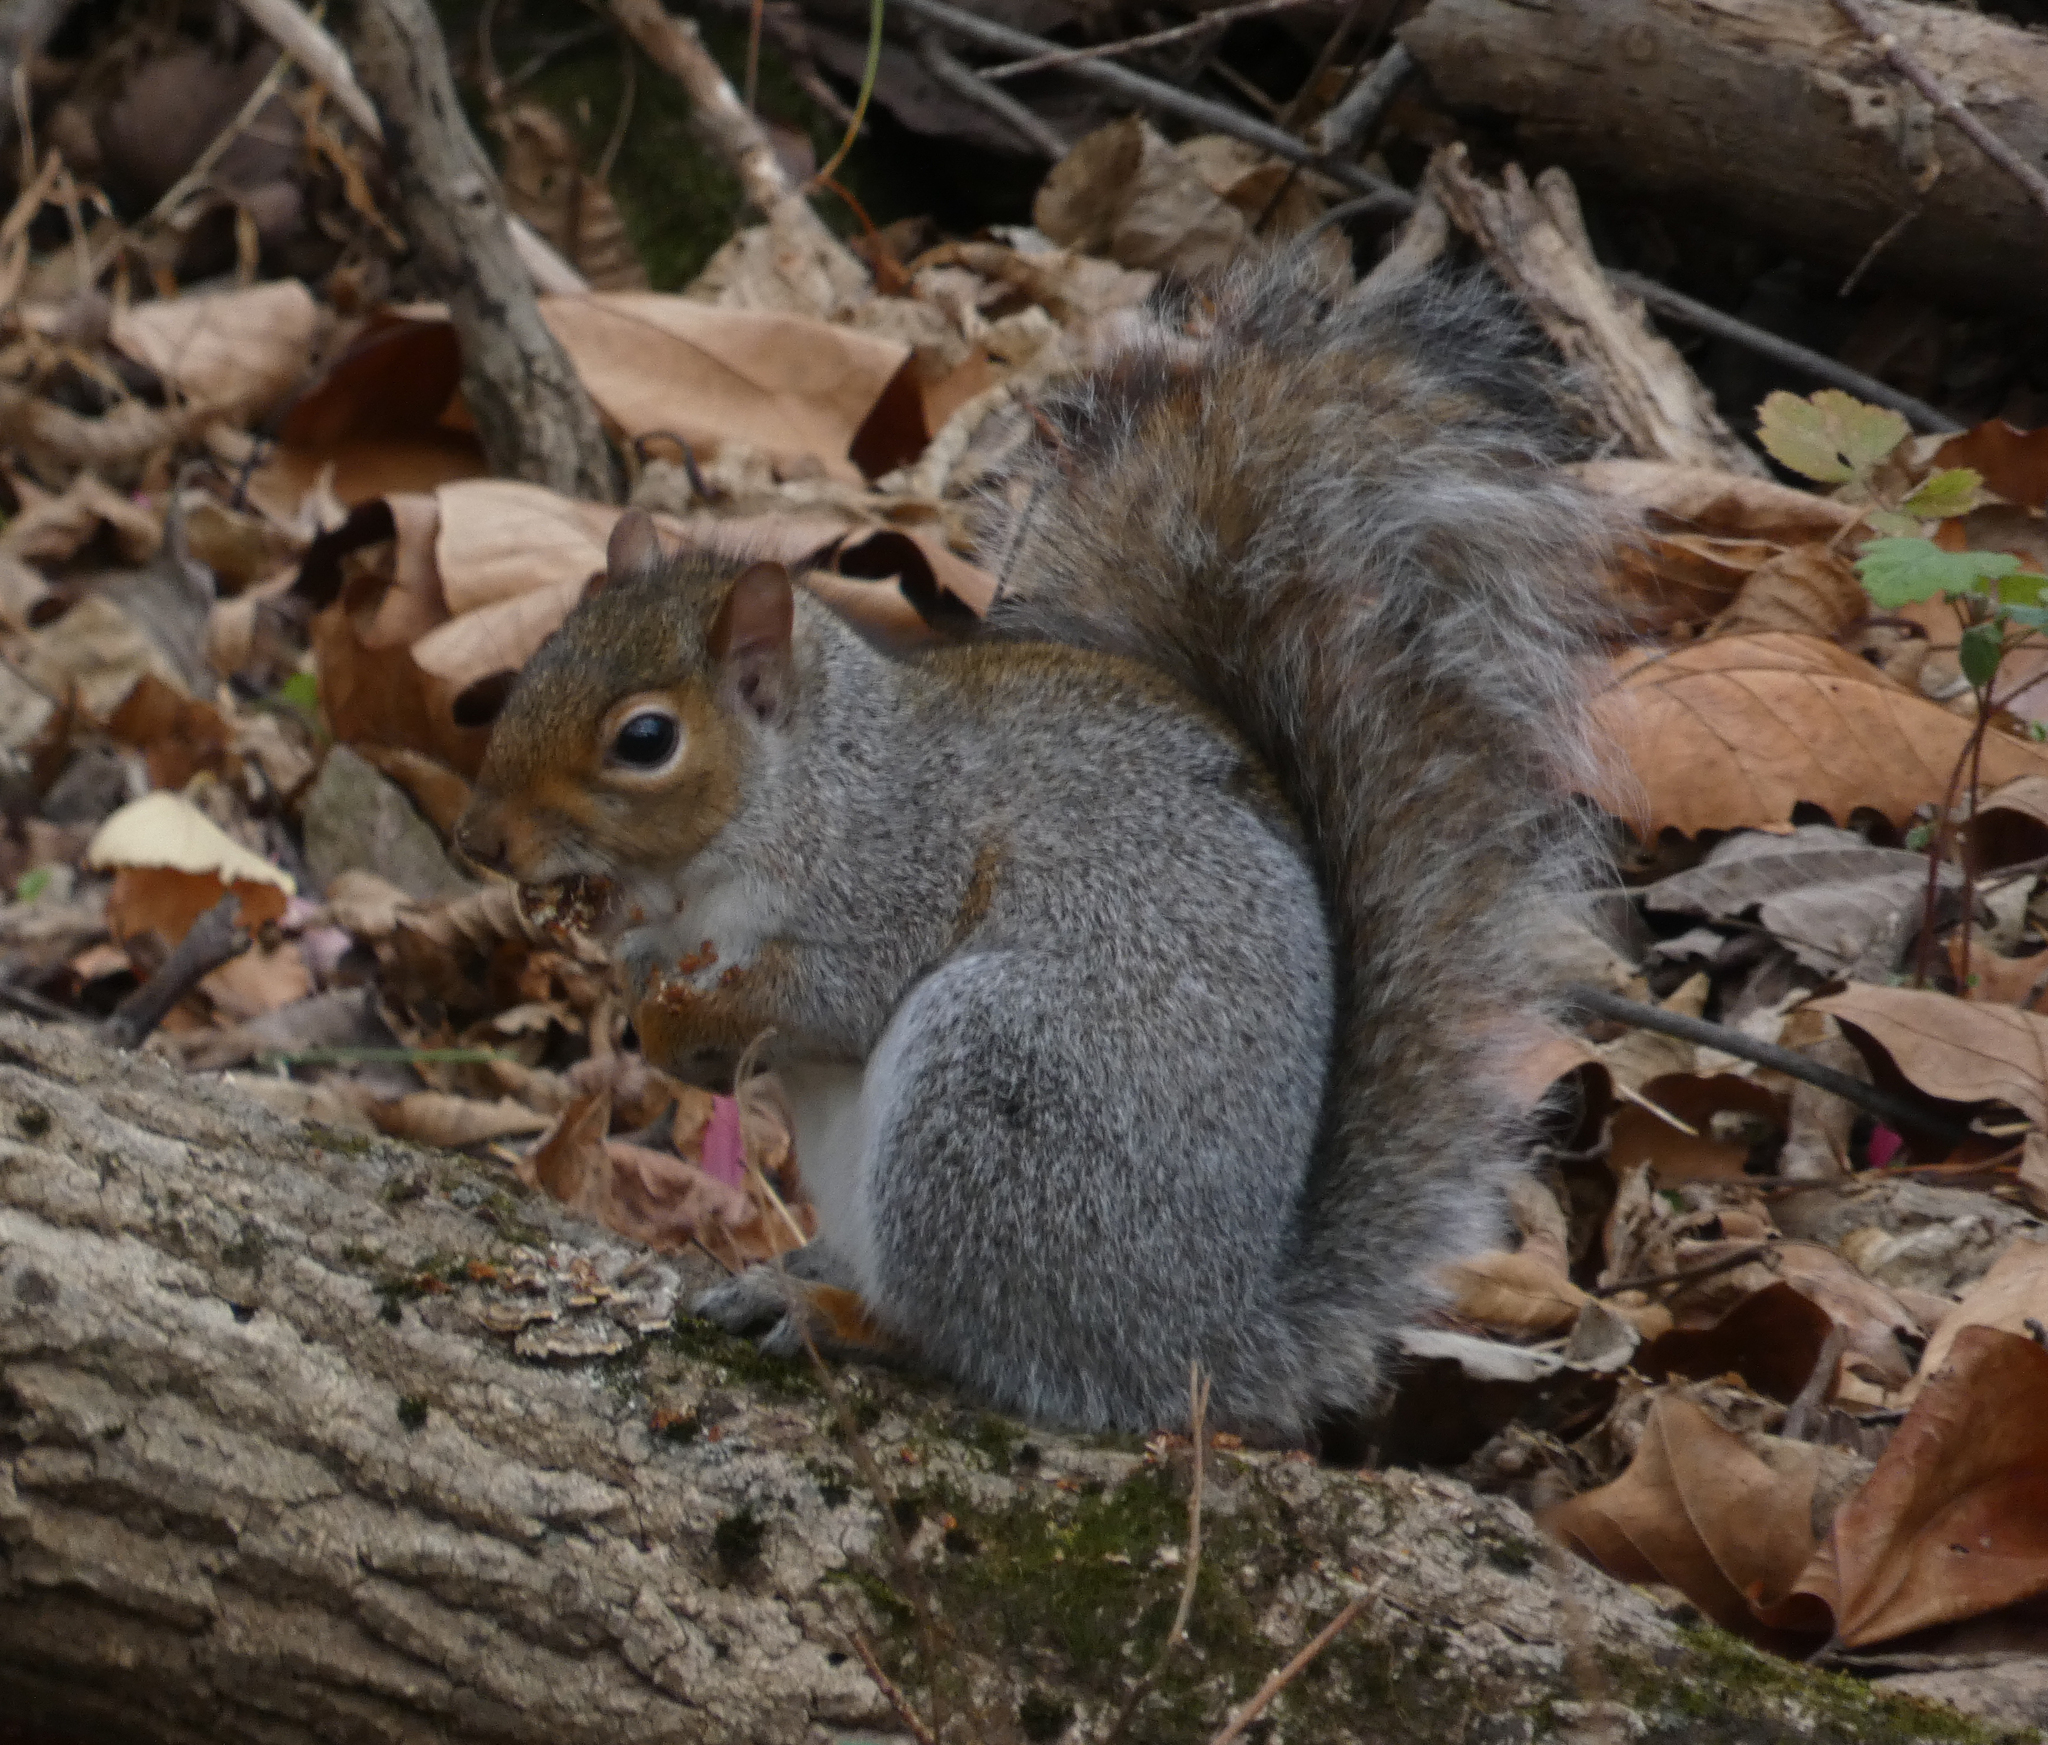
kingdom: Animalia
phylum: Chordata
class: Mammalia
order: Rodentia
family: Sciuridae
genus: Sciurus
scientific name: Sciurus carolinensis
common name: Eastern gray squirrel
